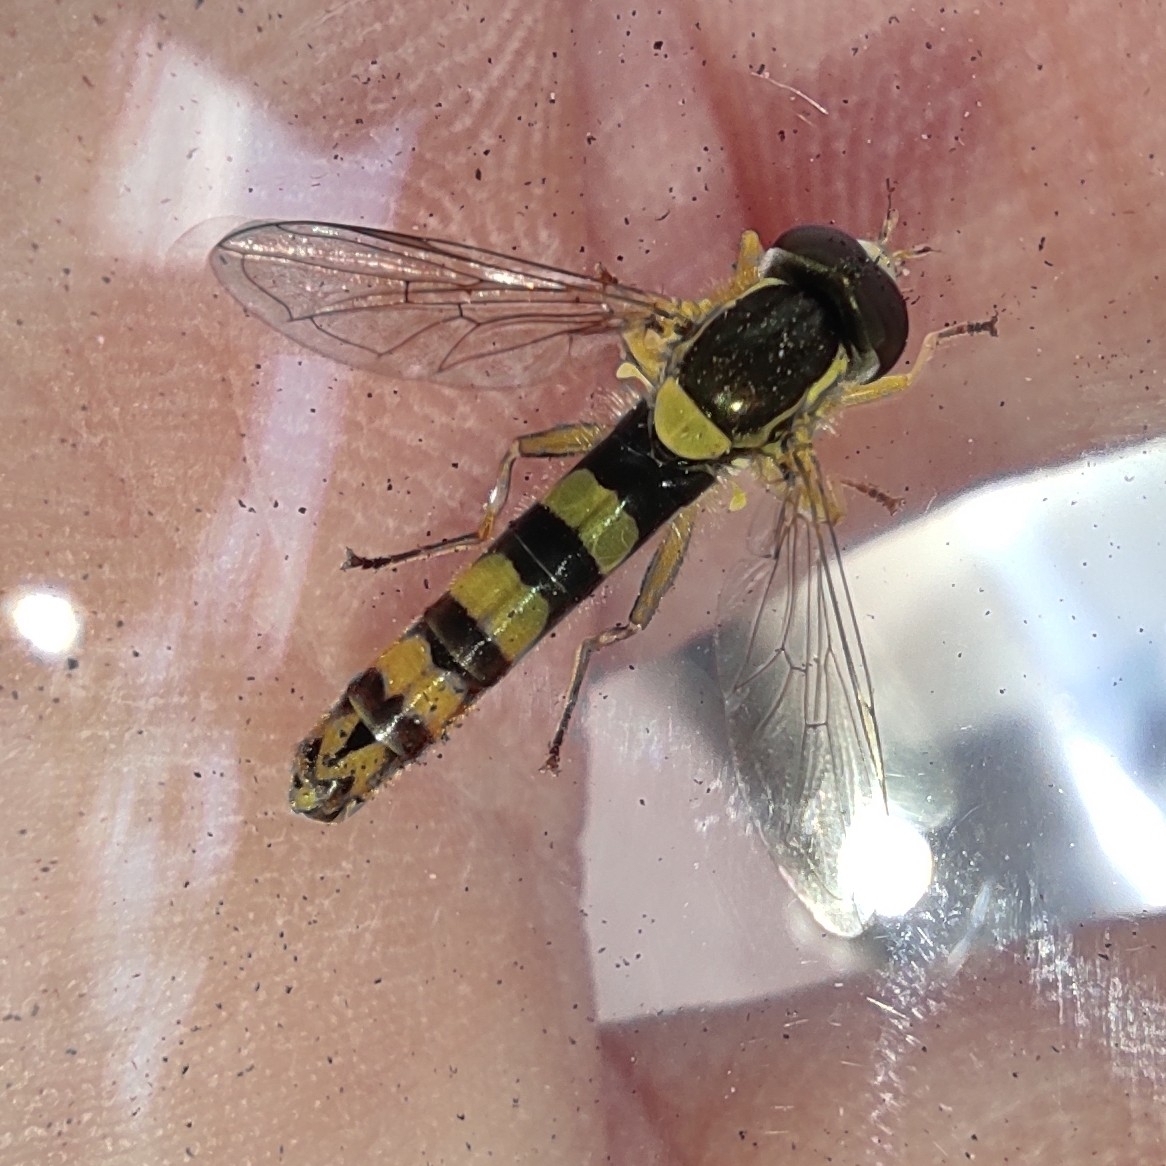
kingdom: Animalia
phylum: Arthropoda
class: Insecta
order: Diptera
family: Syrphidae
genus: Sphaerophoria
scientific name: Sphaerophoria scripta
